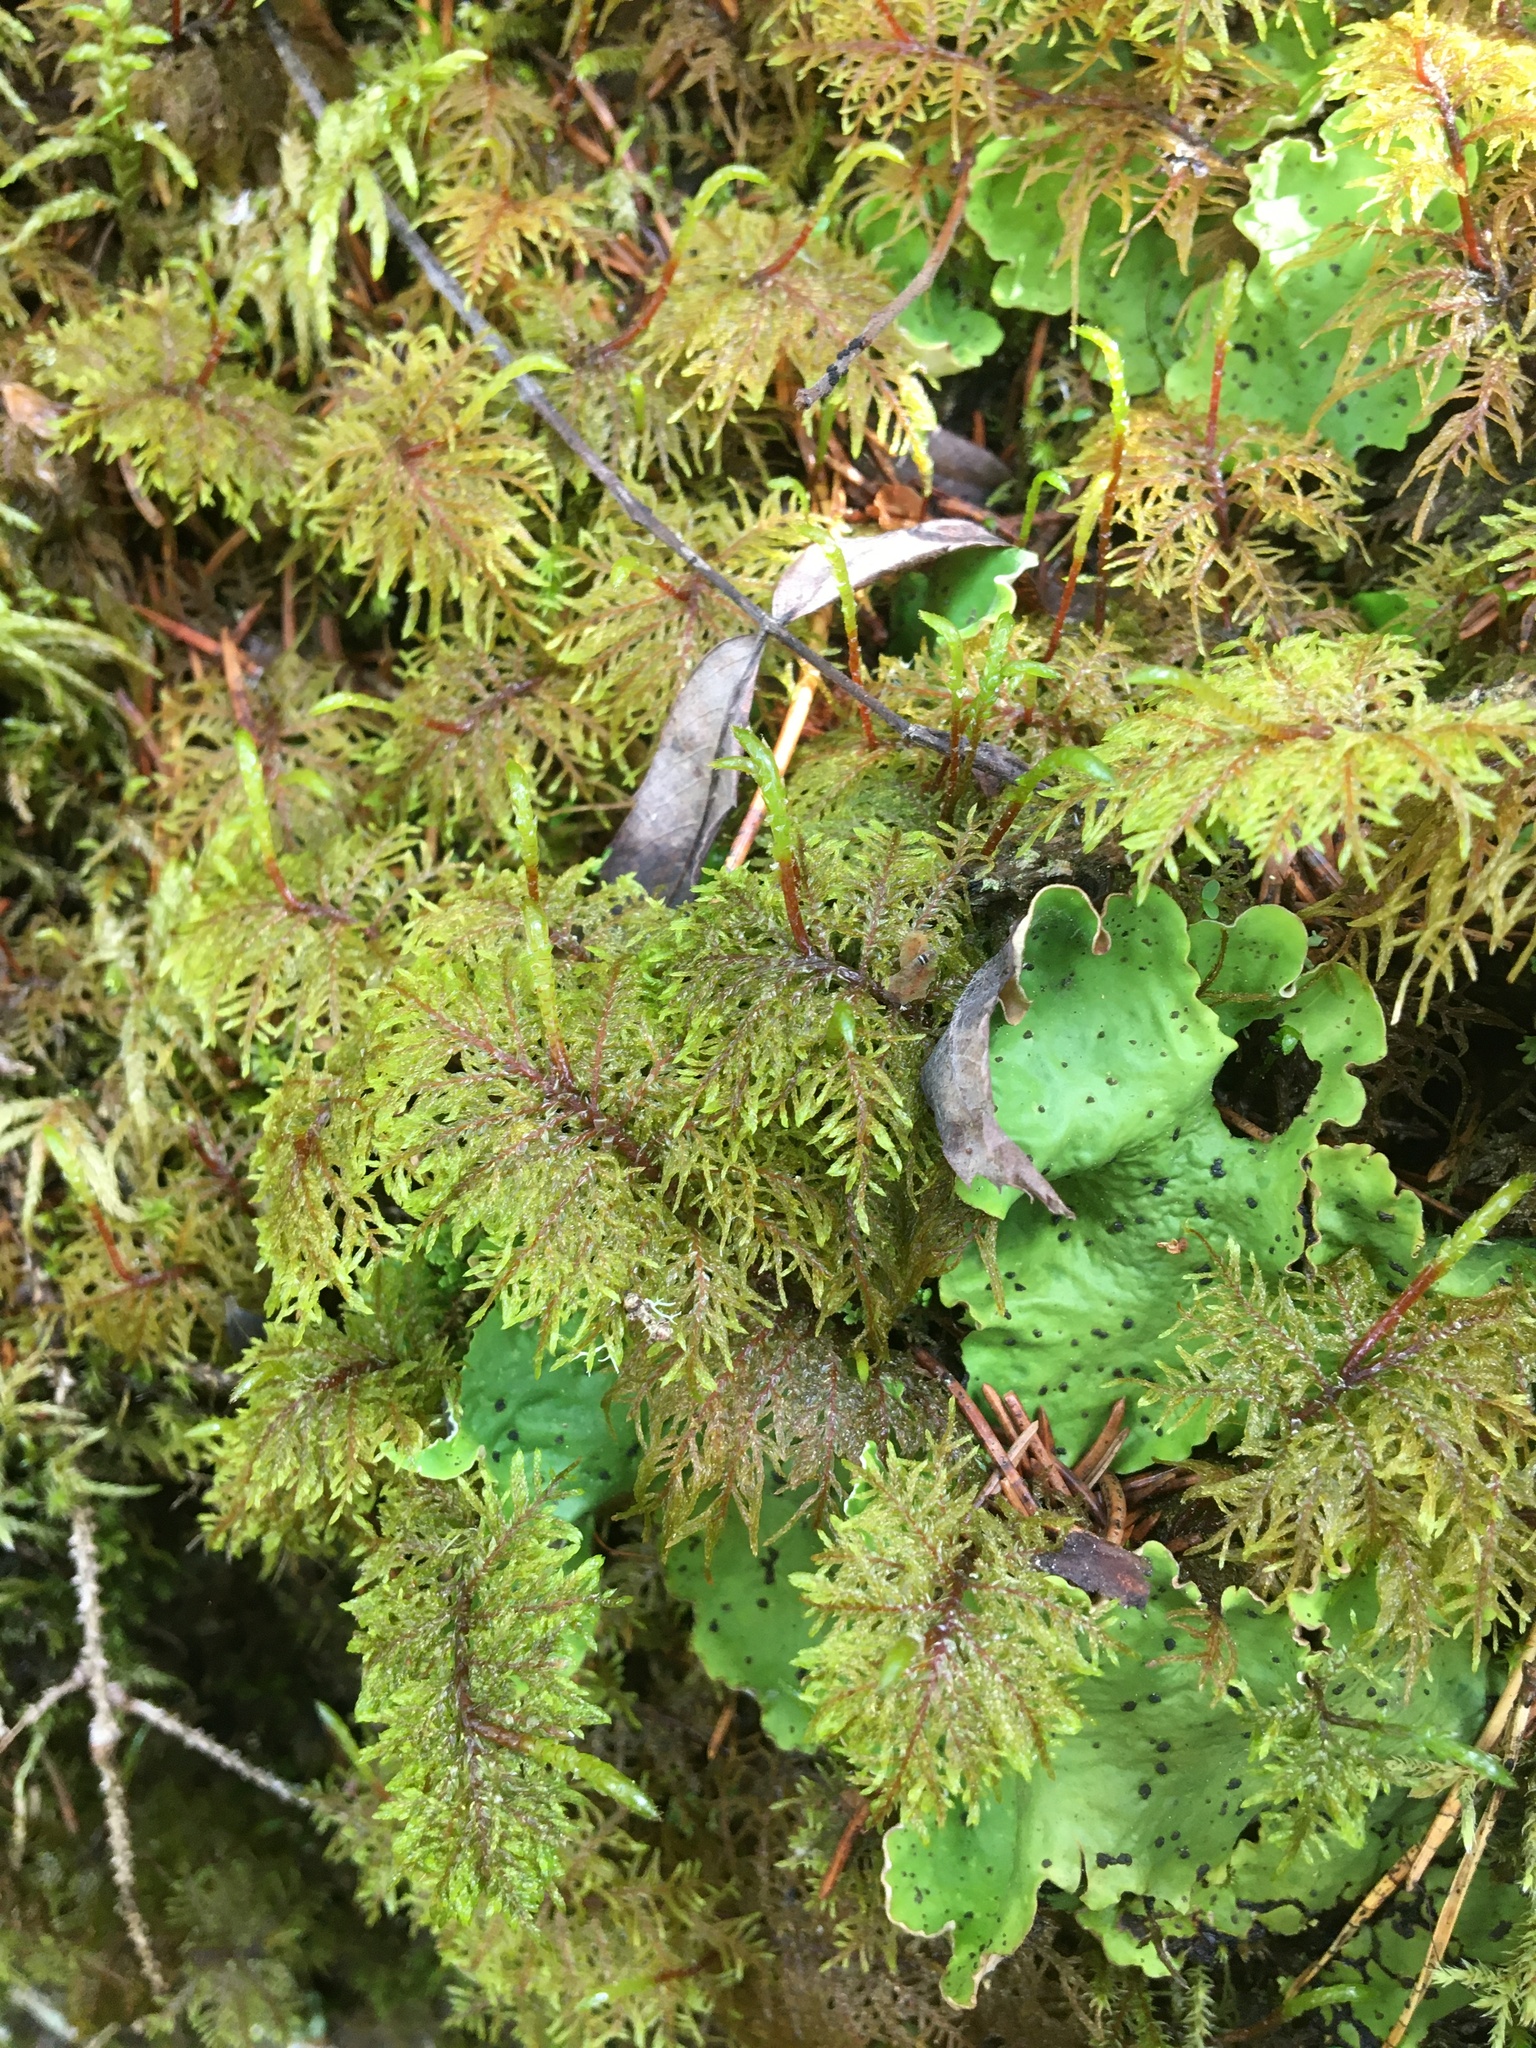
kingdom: Plantae
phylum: Bryophyta
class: Bryopsida
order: Hypnales
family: Hylocomiaceae
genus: Hylocomium
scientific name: Hylocomium splendens
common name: Stairstep moss
